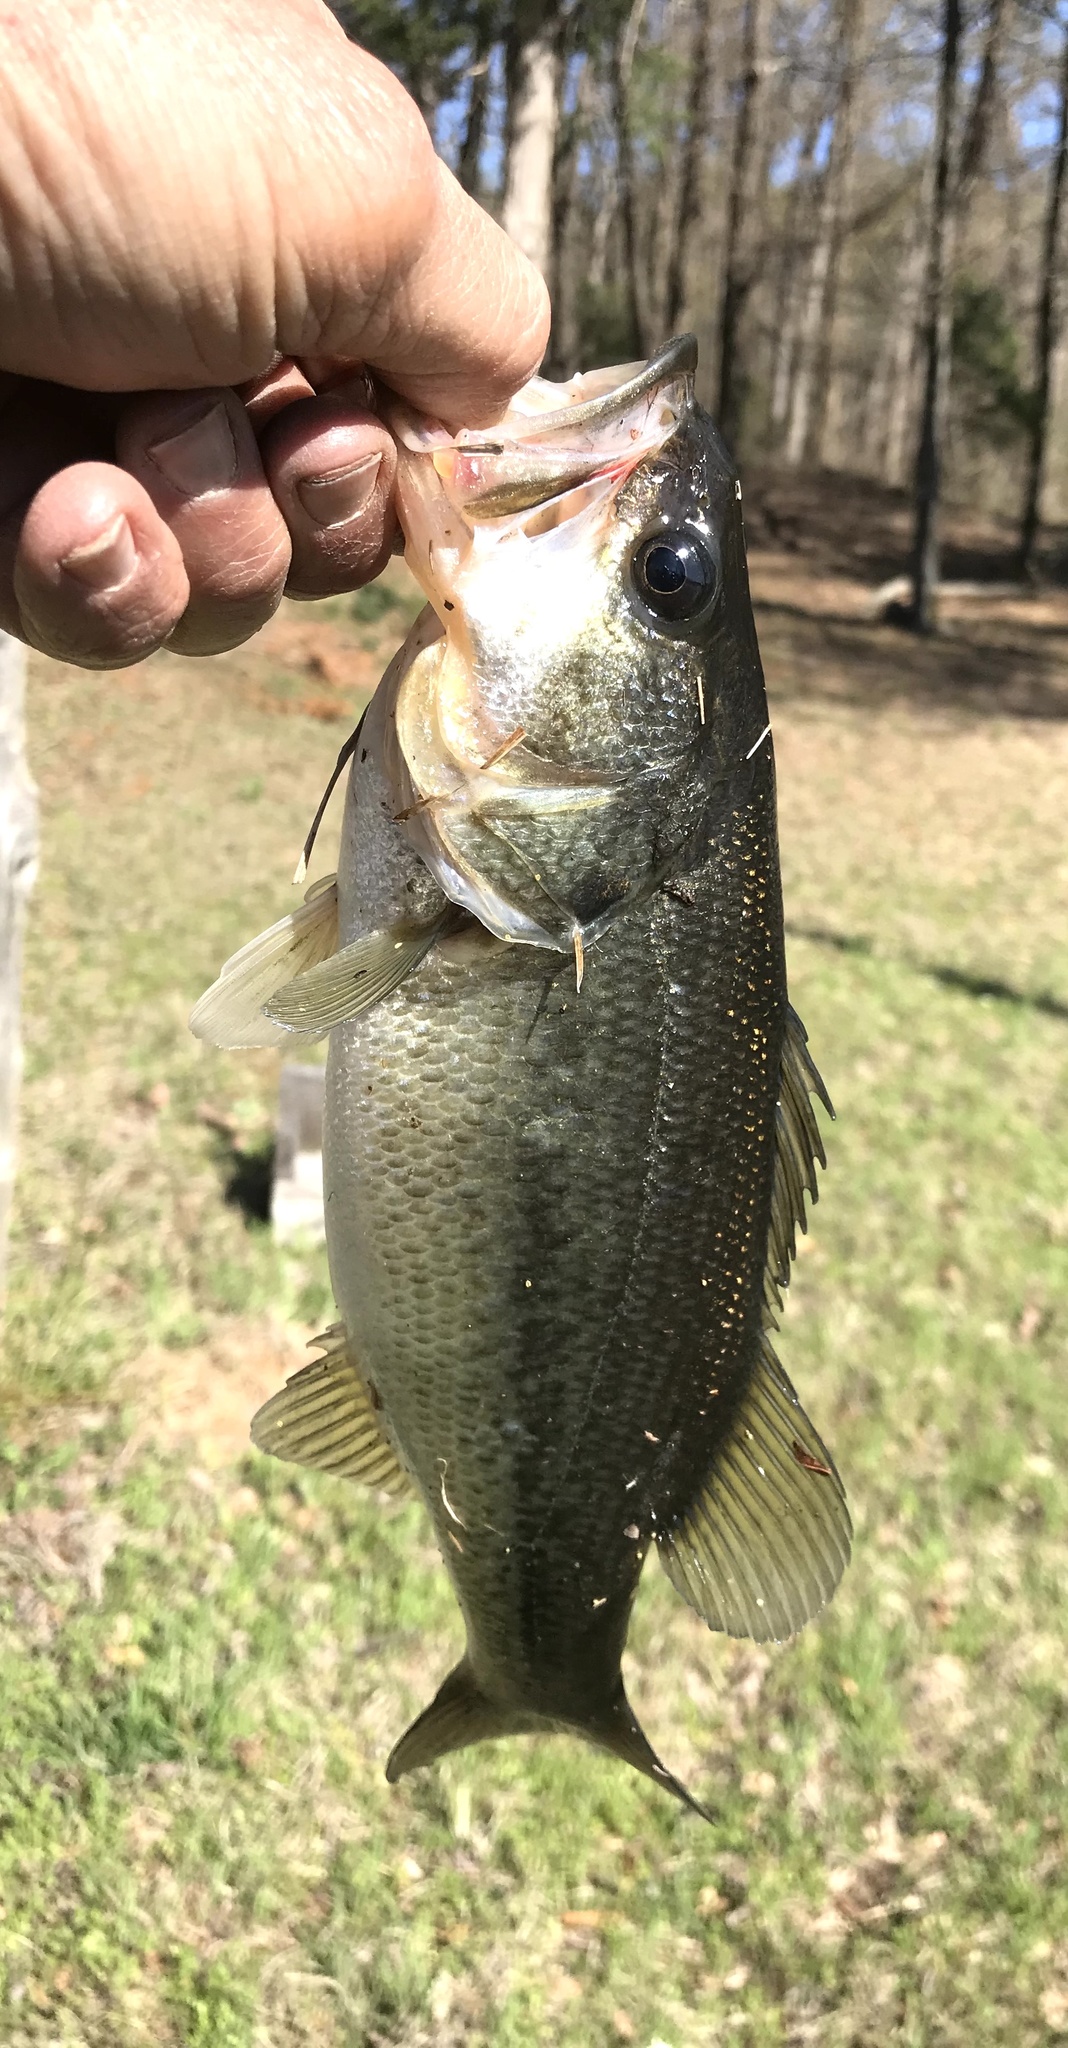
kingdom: Animalia
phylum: Chordata
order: Perciformes
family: Centrarchidae
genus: Micropterus
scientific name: Micropterus
